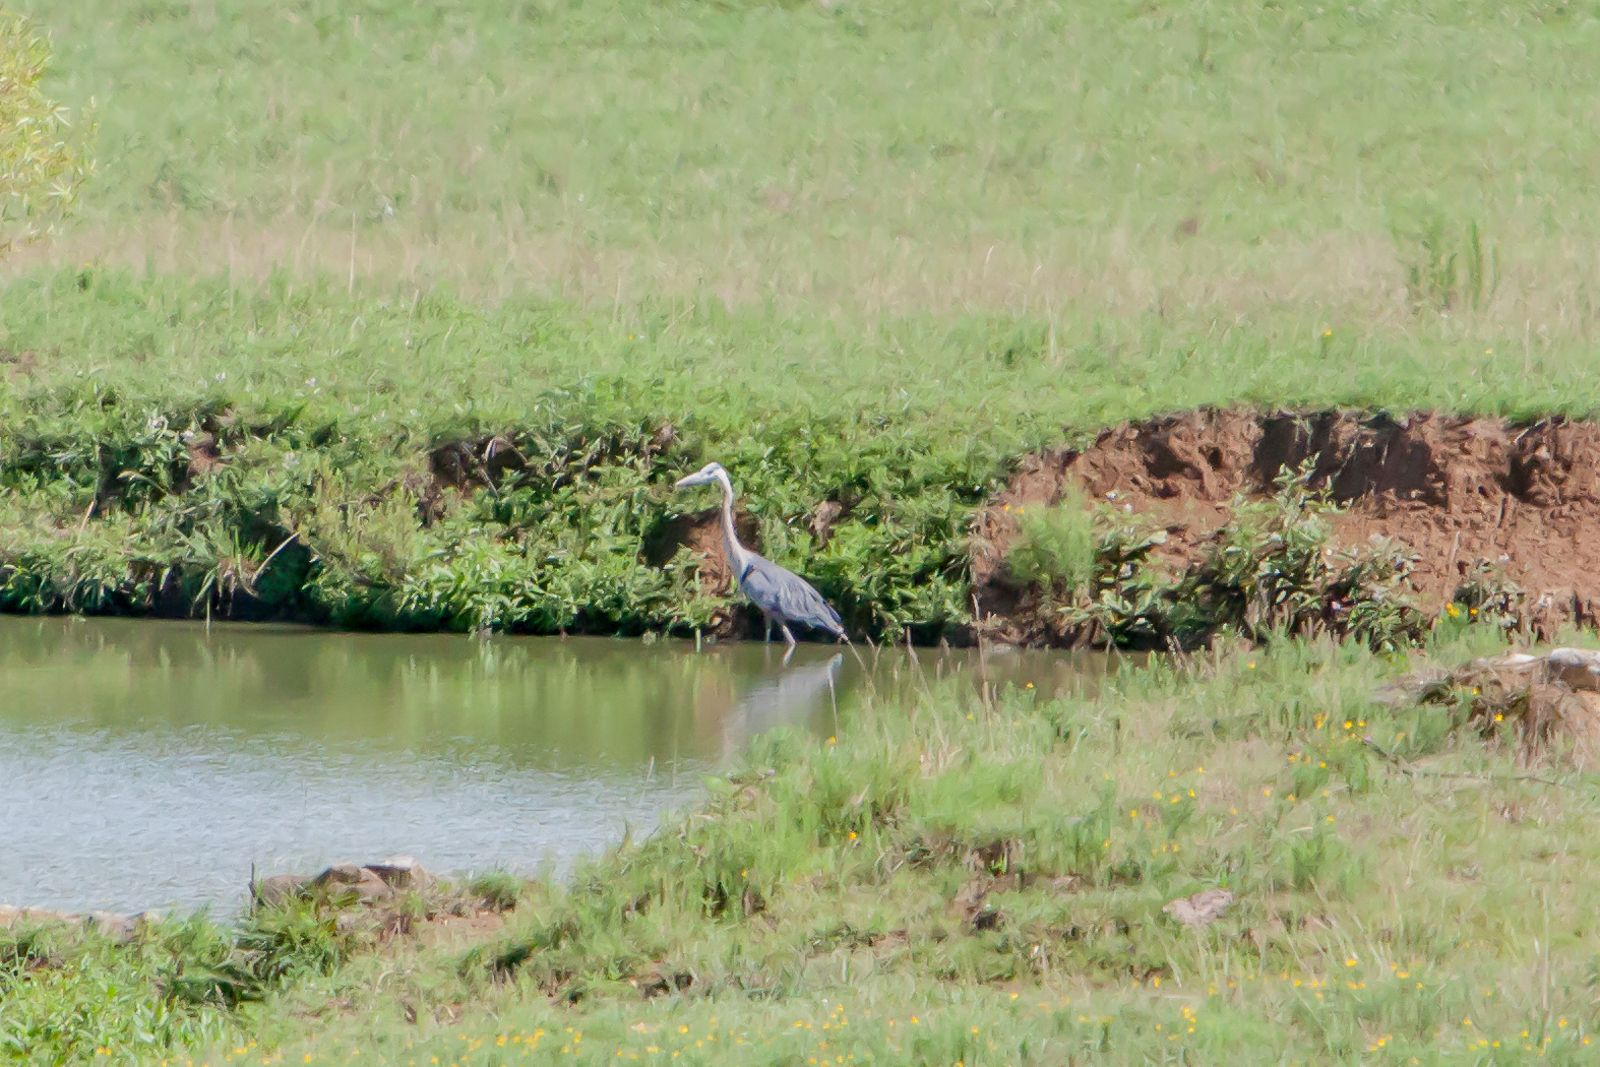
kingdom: Animalia
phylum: Chordata
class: Aves
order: Pelecaniformes
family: Ardeidae
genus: Ardea
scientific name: Ardea herodias
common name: Great blue heron
